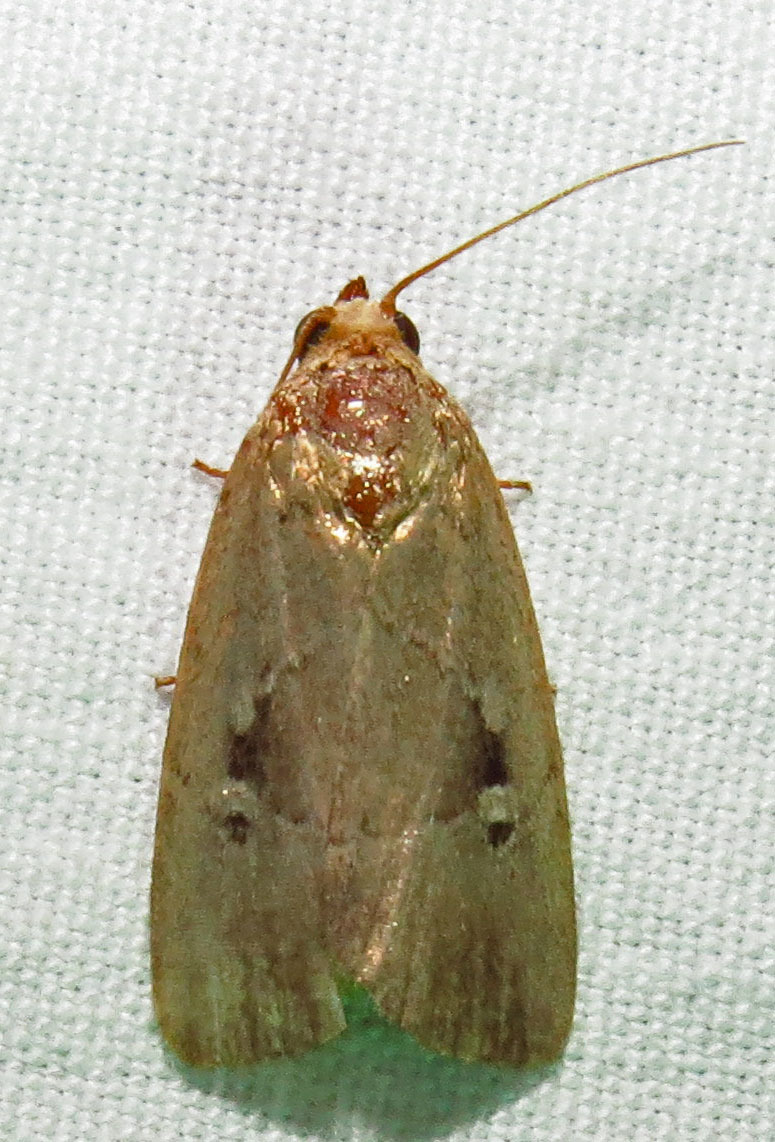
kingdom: Animalia
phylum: Arthropoda
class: Insecta
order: Lepidoptera
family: Noctuidae
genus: Elaphria
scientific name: Elaphria nucicolora
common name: Sugarcane midget moth
